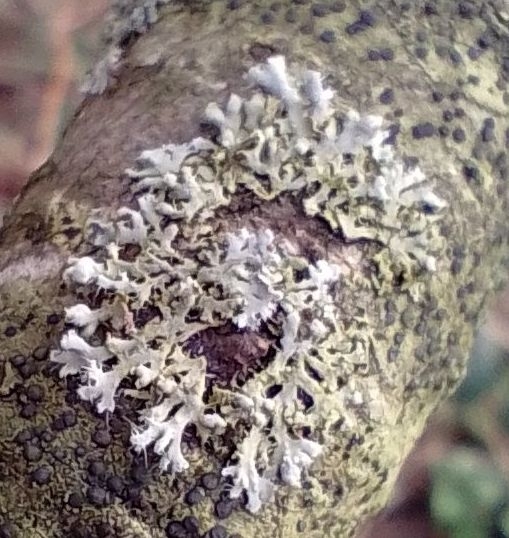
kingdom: Fungi
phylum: Ascomycota
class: Lecanoromycetes
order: Caliciales
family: Physciaceae
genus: Physcia
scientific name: Physcia adscendens
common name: Hooded rosette lichen
